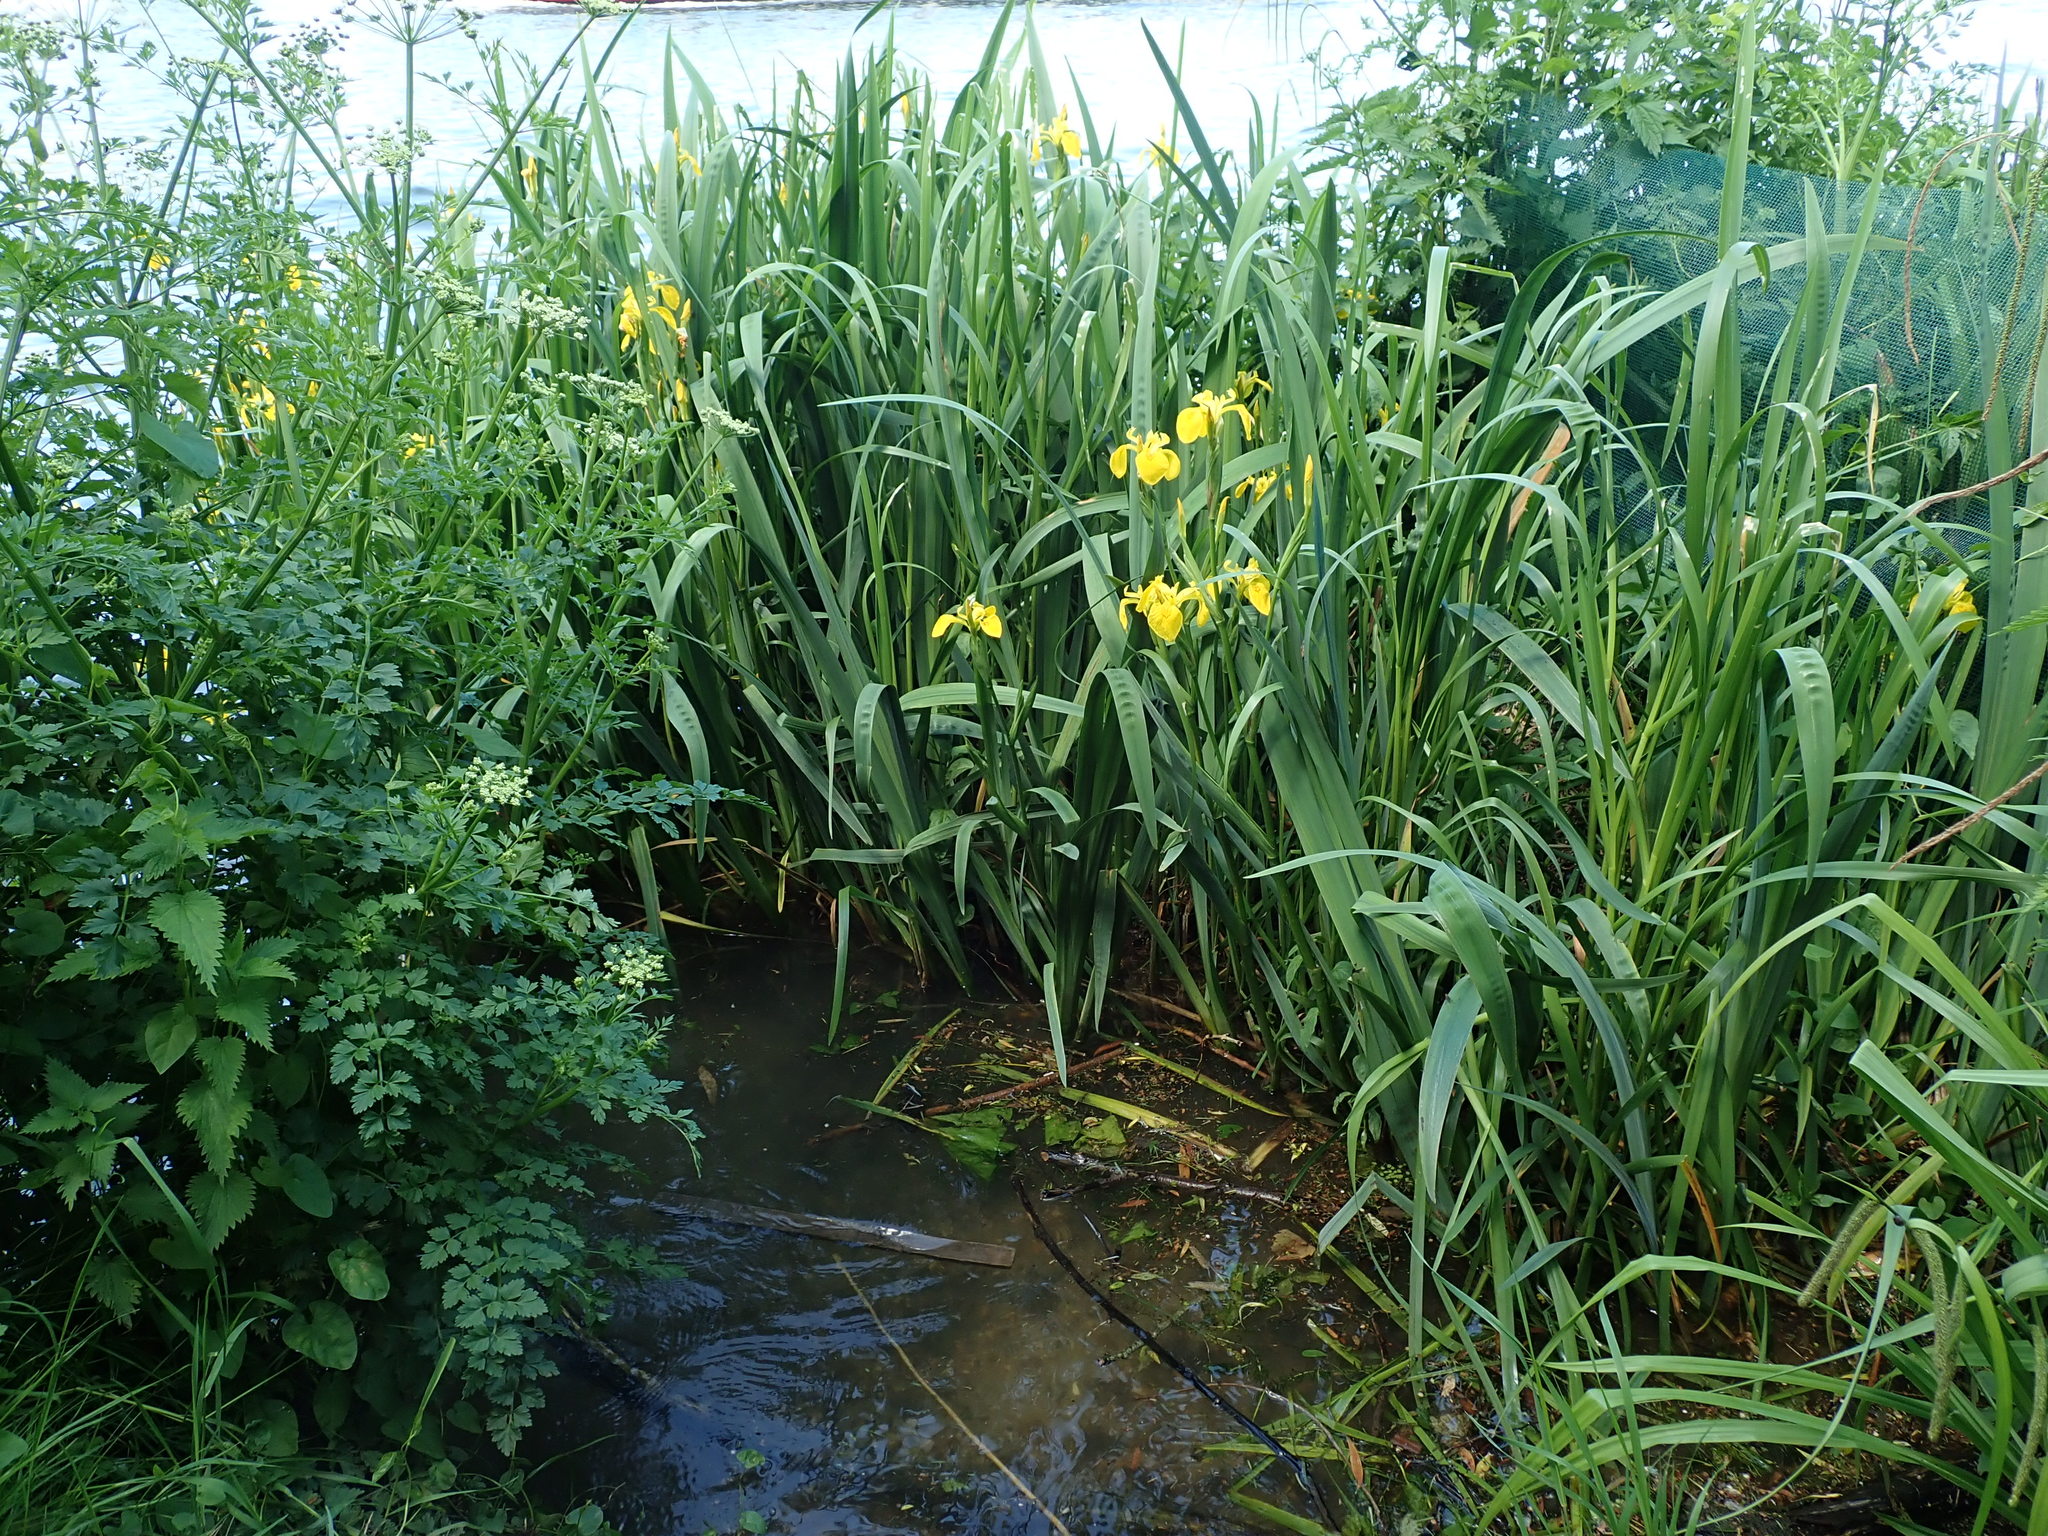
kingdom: Plantae
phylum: Tracheophyta
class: Liliopsida
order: Asparagales
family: Iridaceae
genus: Iris
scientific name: Iris pseudacorus
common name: Yellow flag
